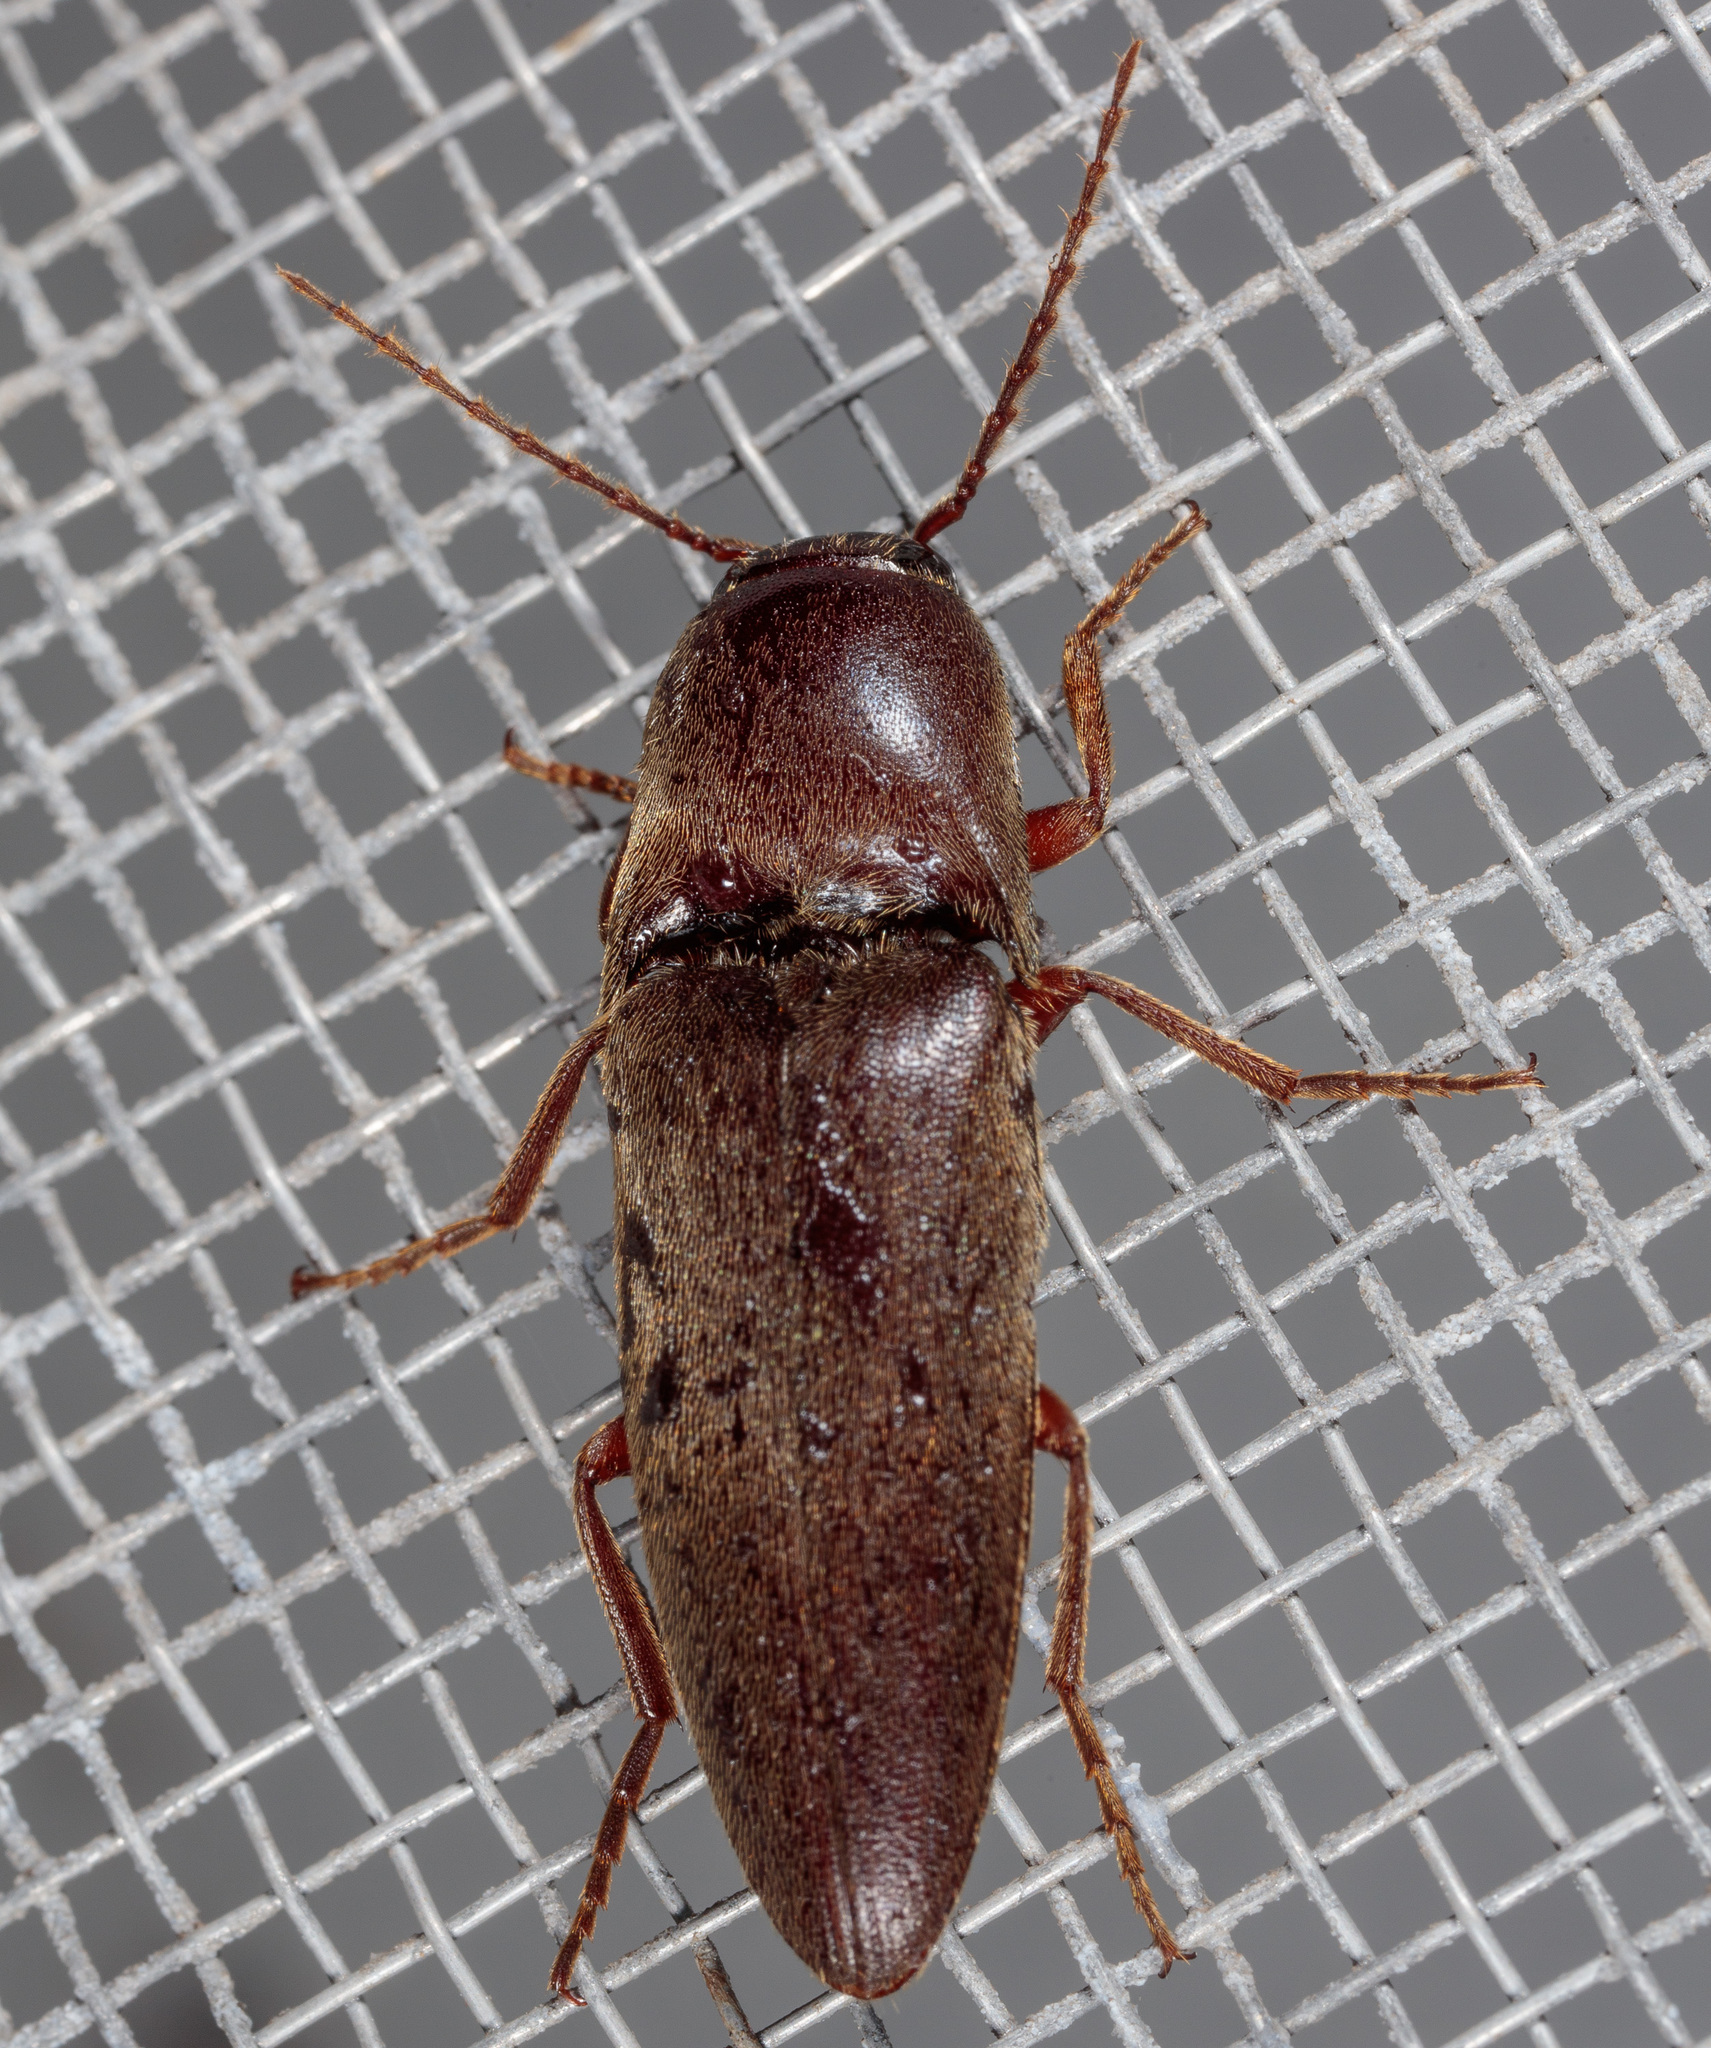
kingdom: Animalia
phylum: Arthropoda
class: Insecta
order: Coleoptera
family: Elateridae
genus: Diplostethus
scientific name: Diplostethus
